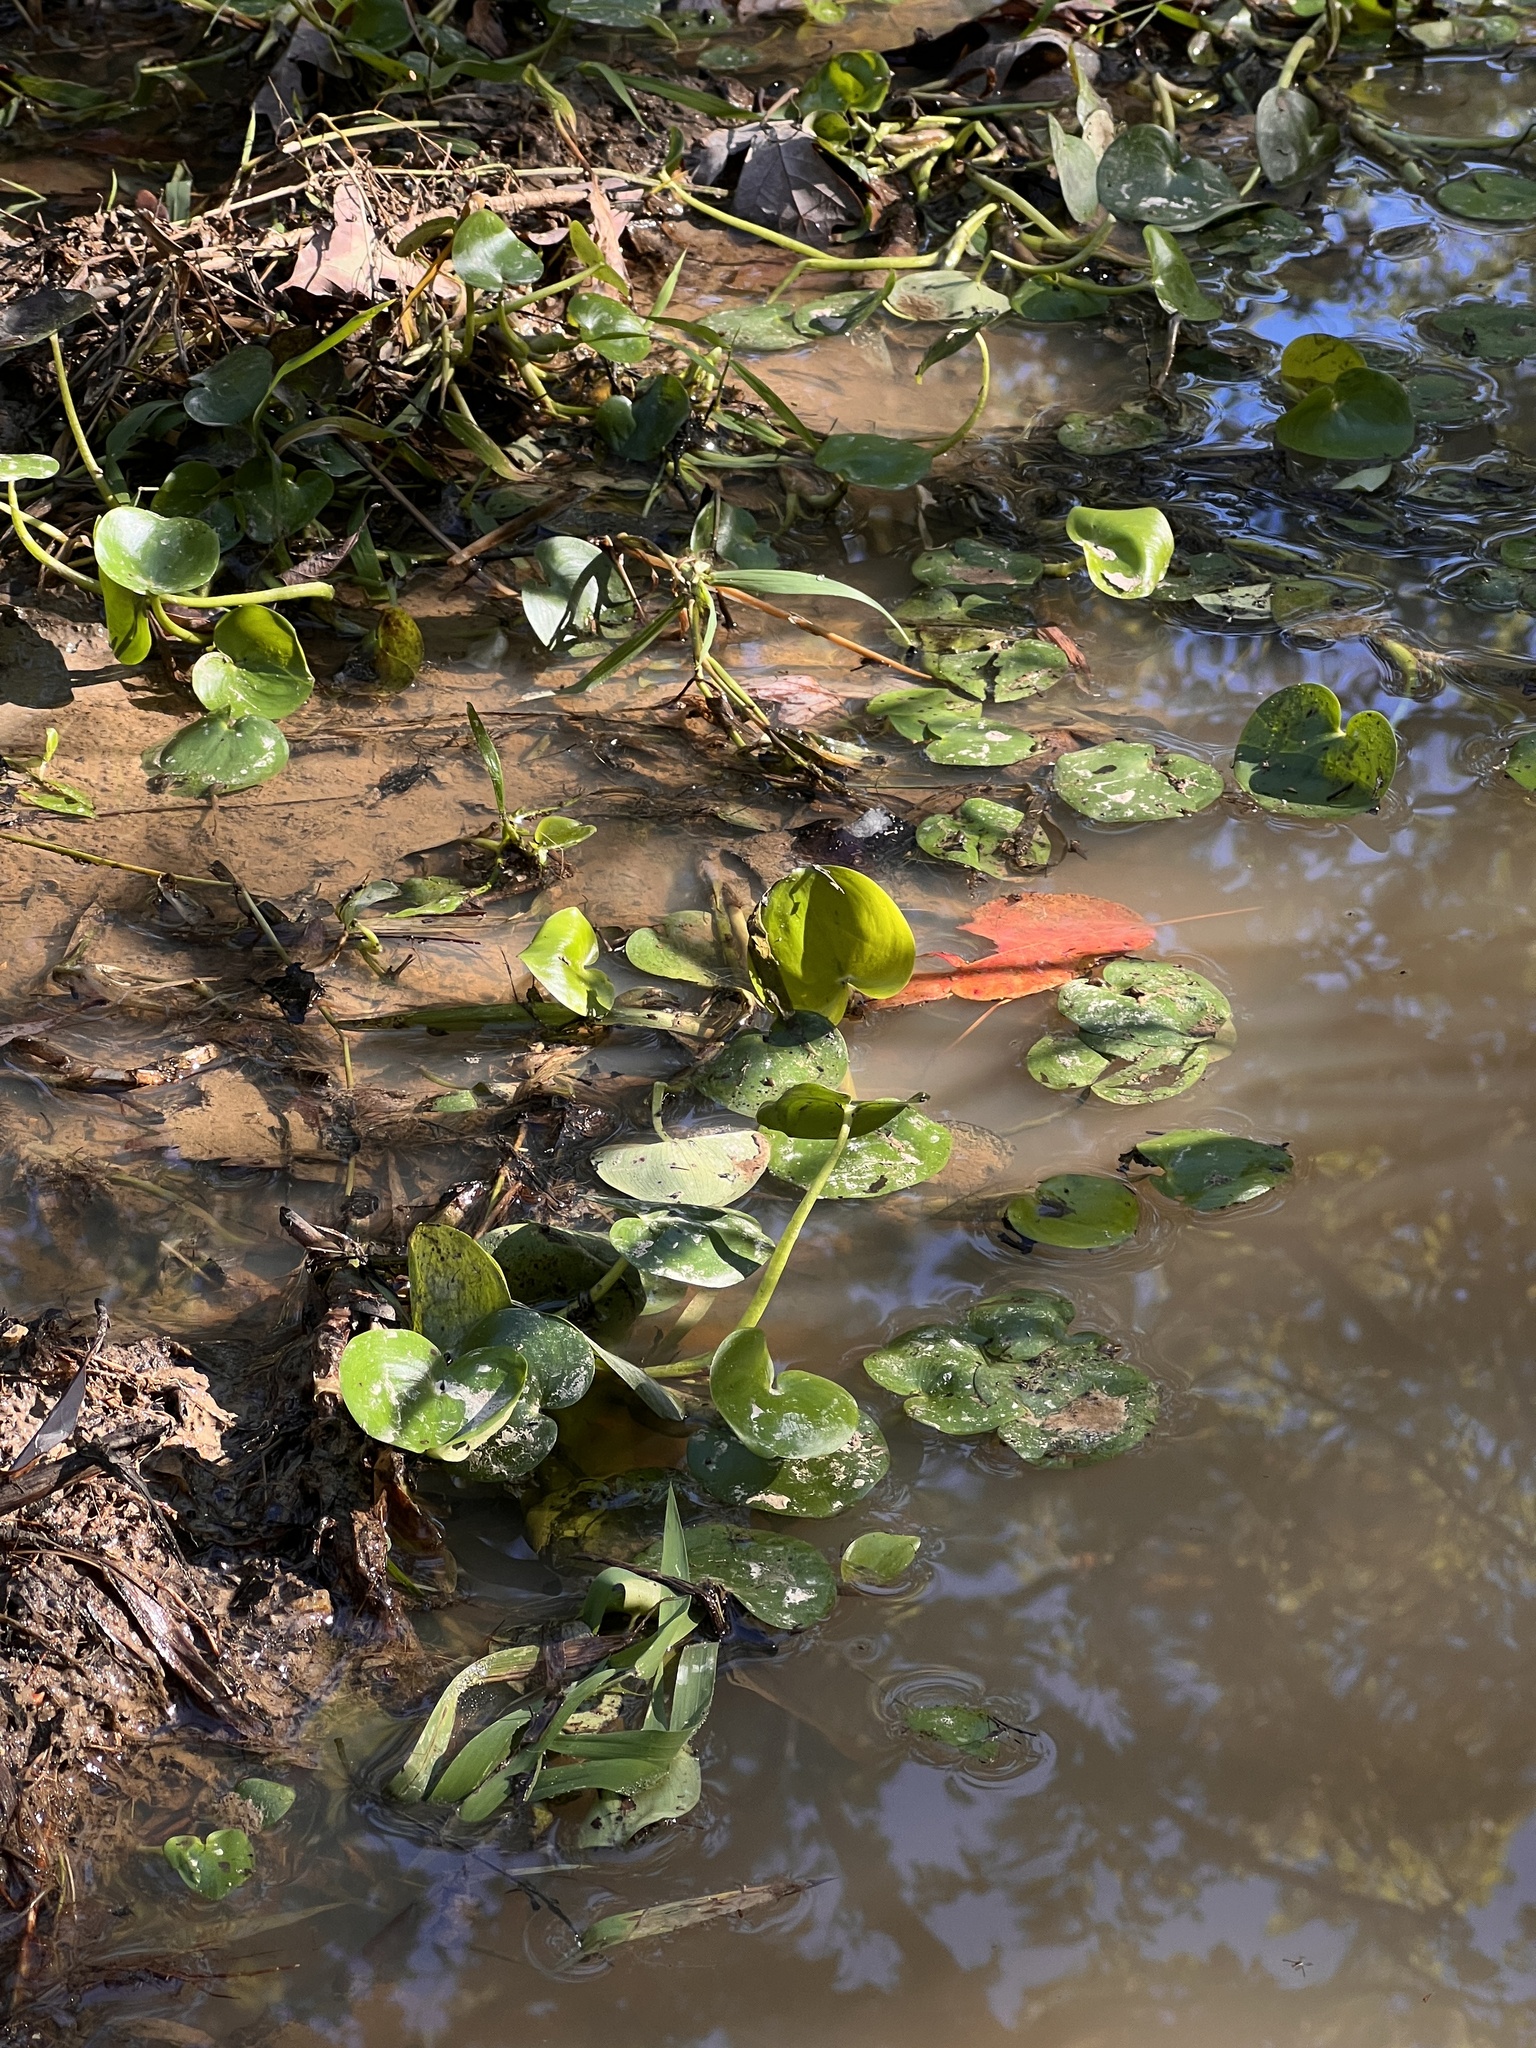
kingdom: Plantae
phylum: Tracheophyta
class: Liliopsida
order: Commelinales
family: Pontederiaceae
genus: Heteranthera
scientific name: Heteranthera missouriensis
